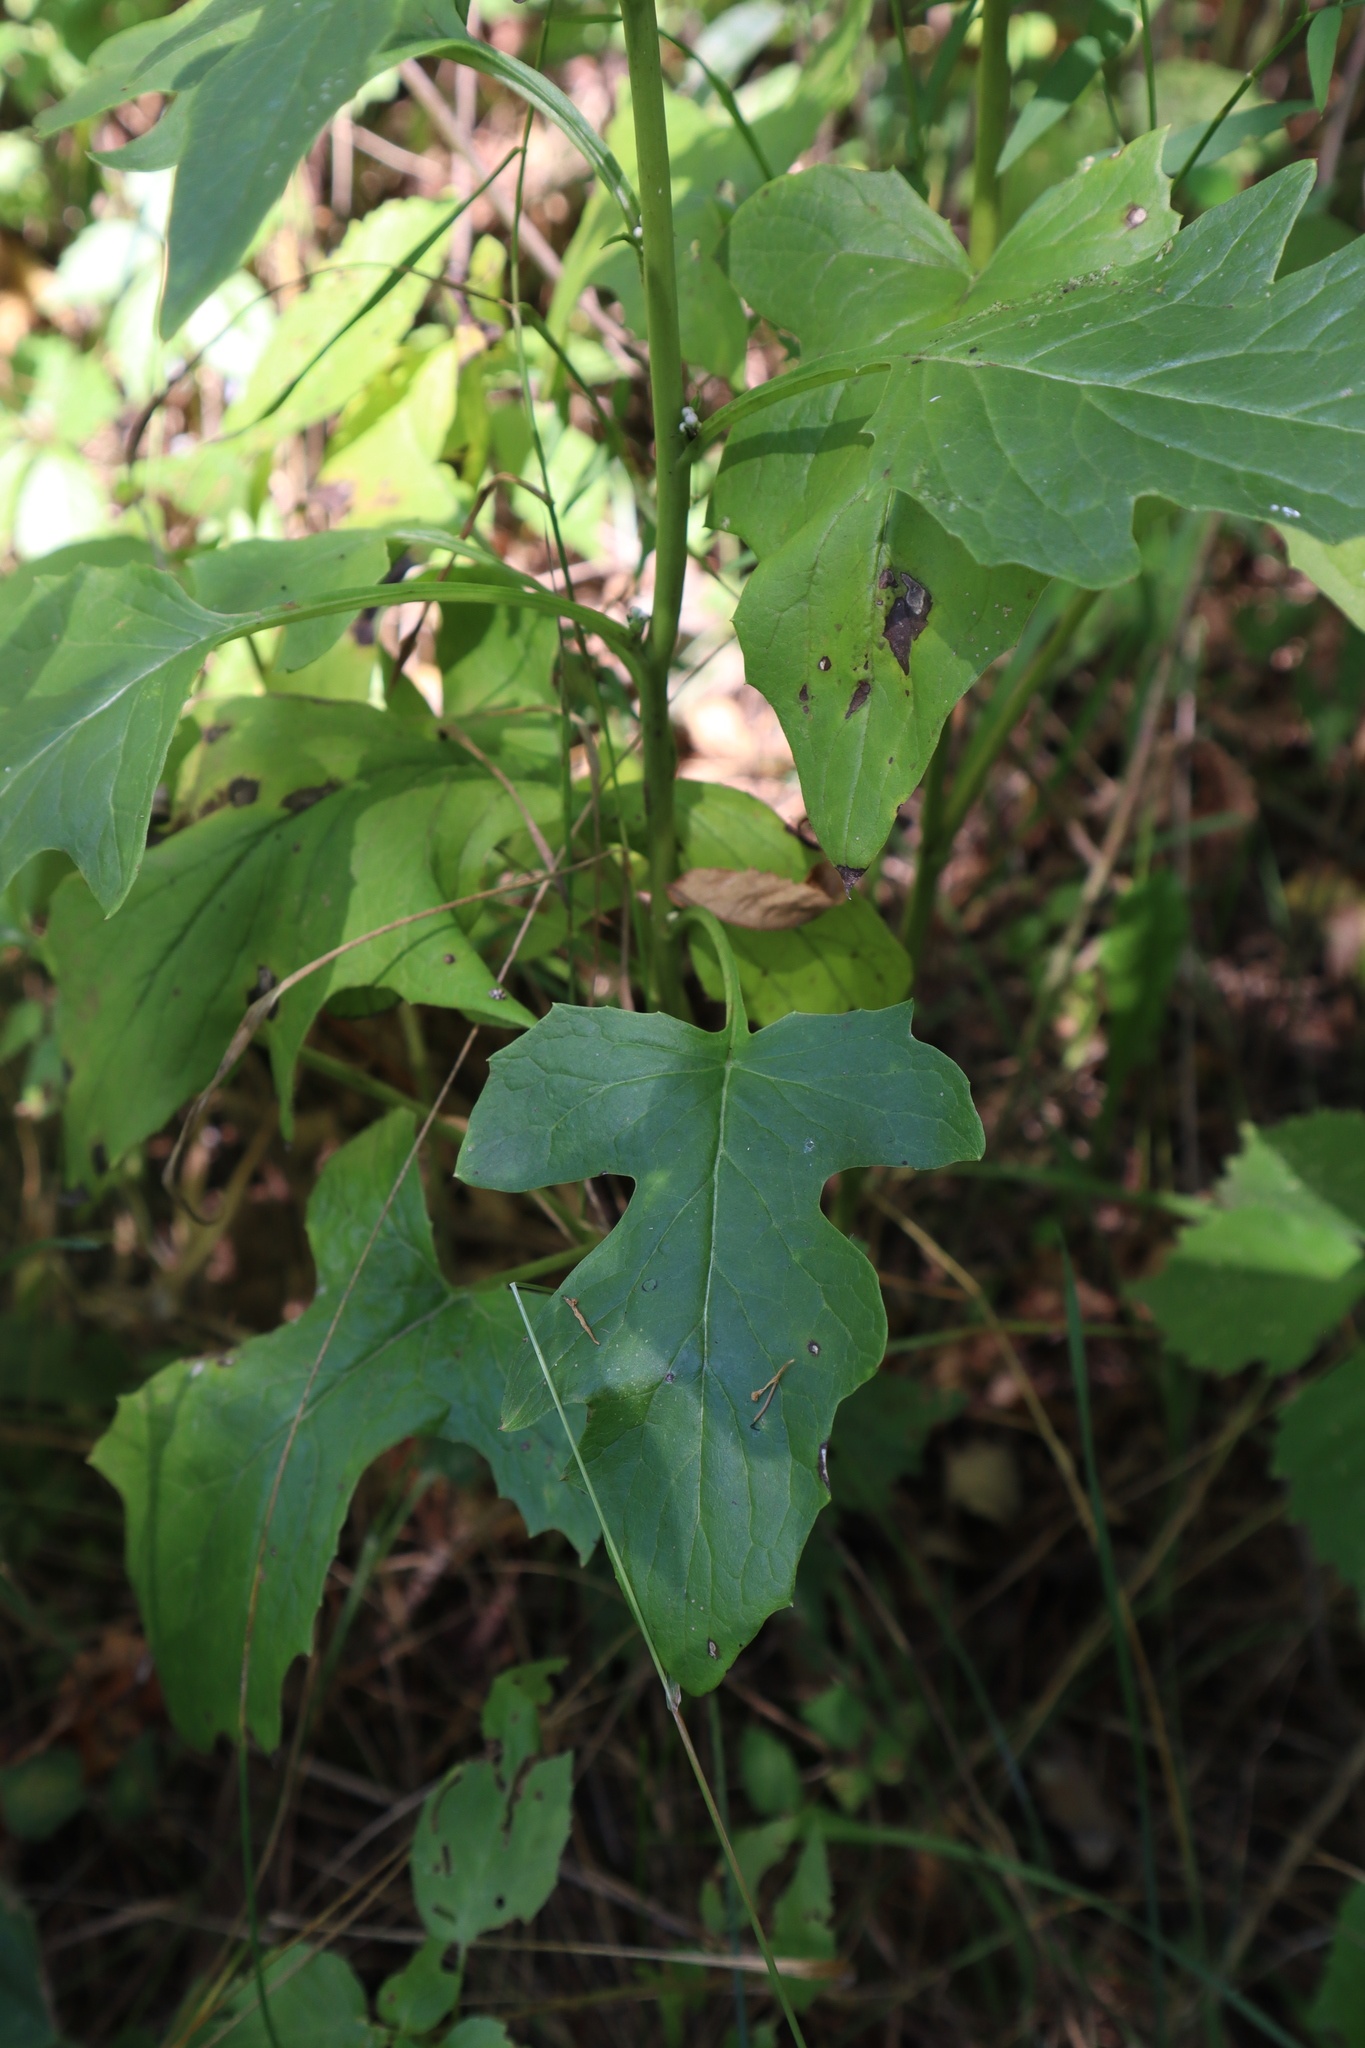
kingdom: Plantae
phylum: Tracheophyta
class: Magnoliopsida
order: Asterales
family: Asteraceae
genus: Nabalus
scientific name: Nabalus albus
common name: White rattlesnakeroot
